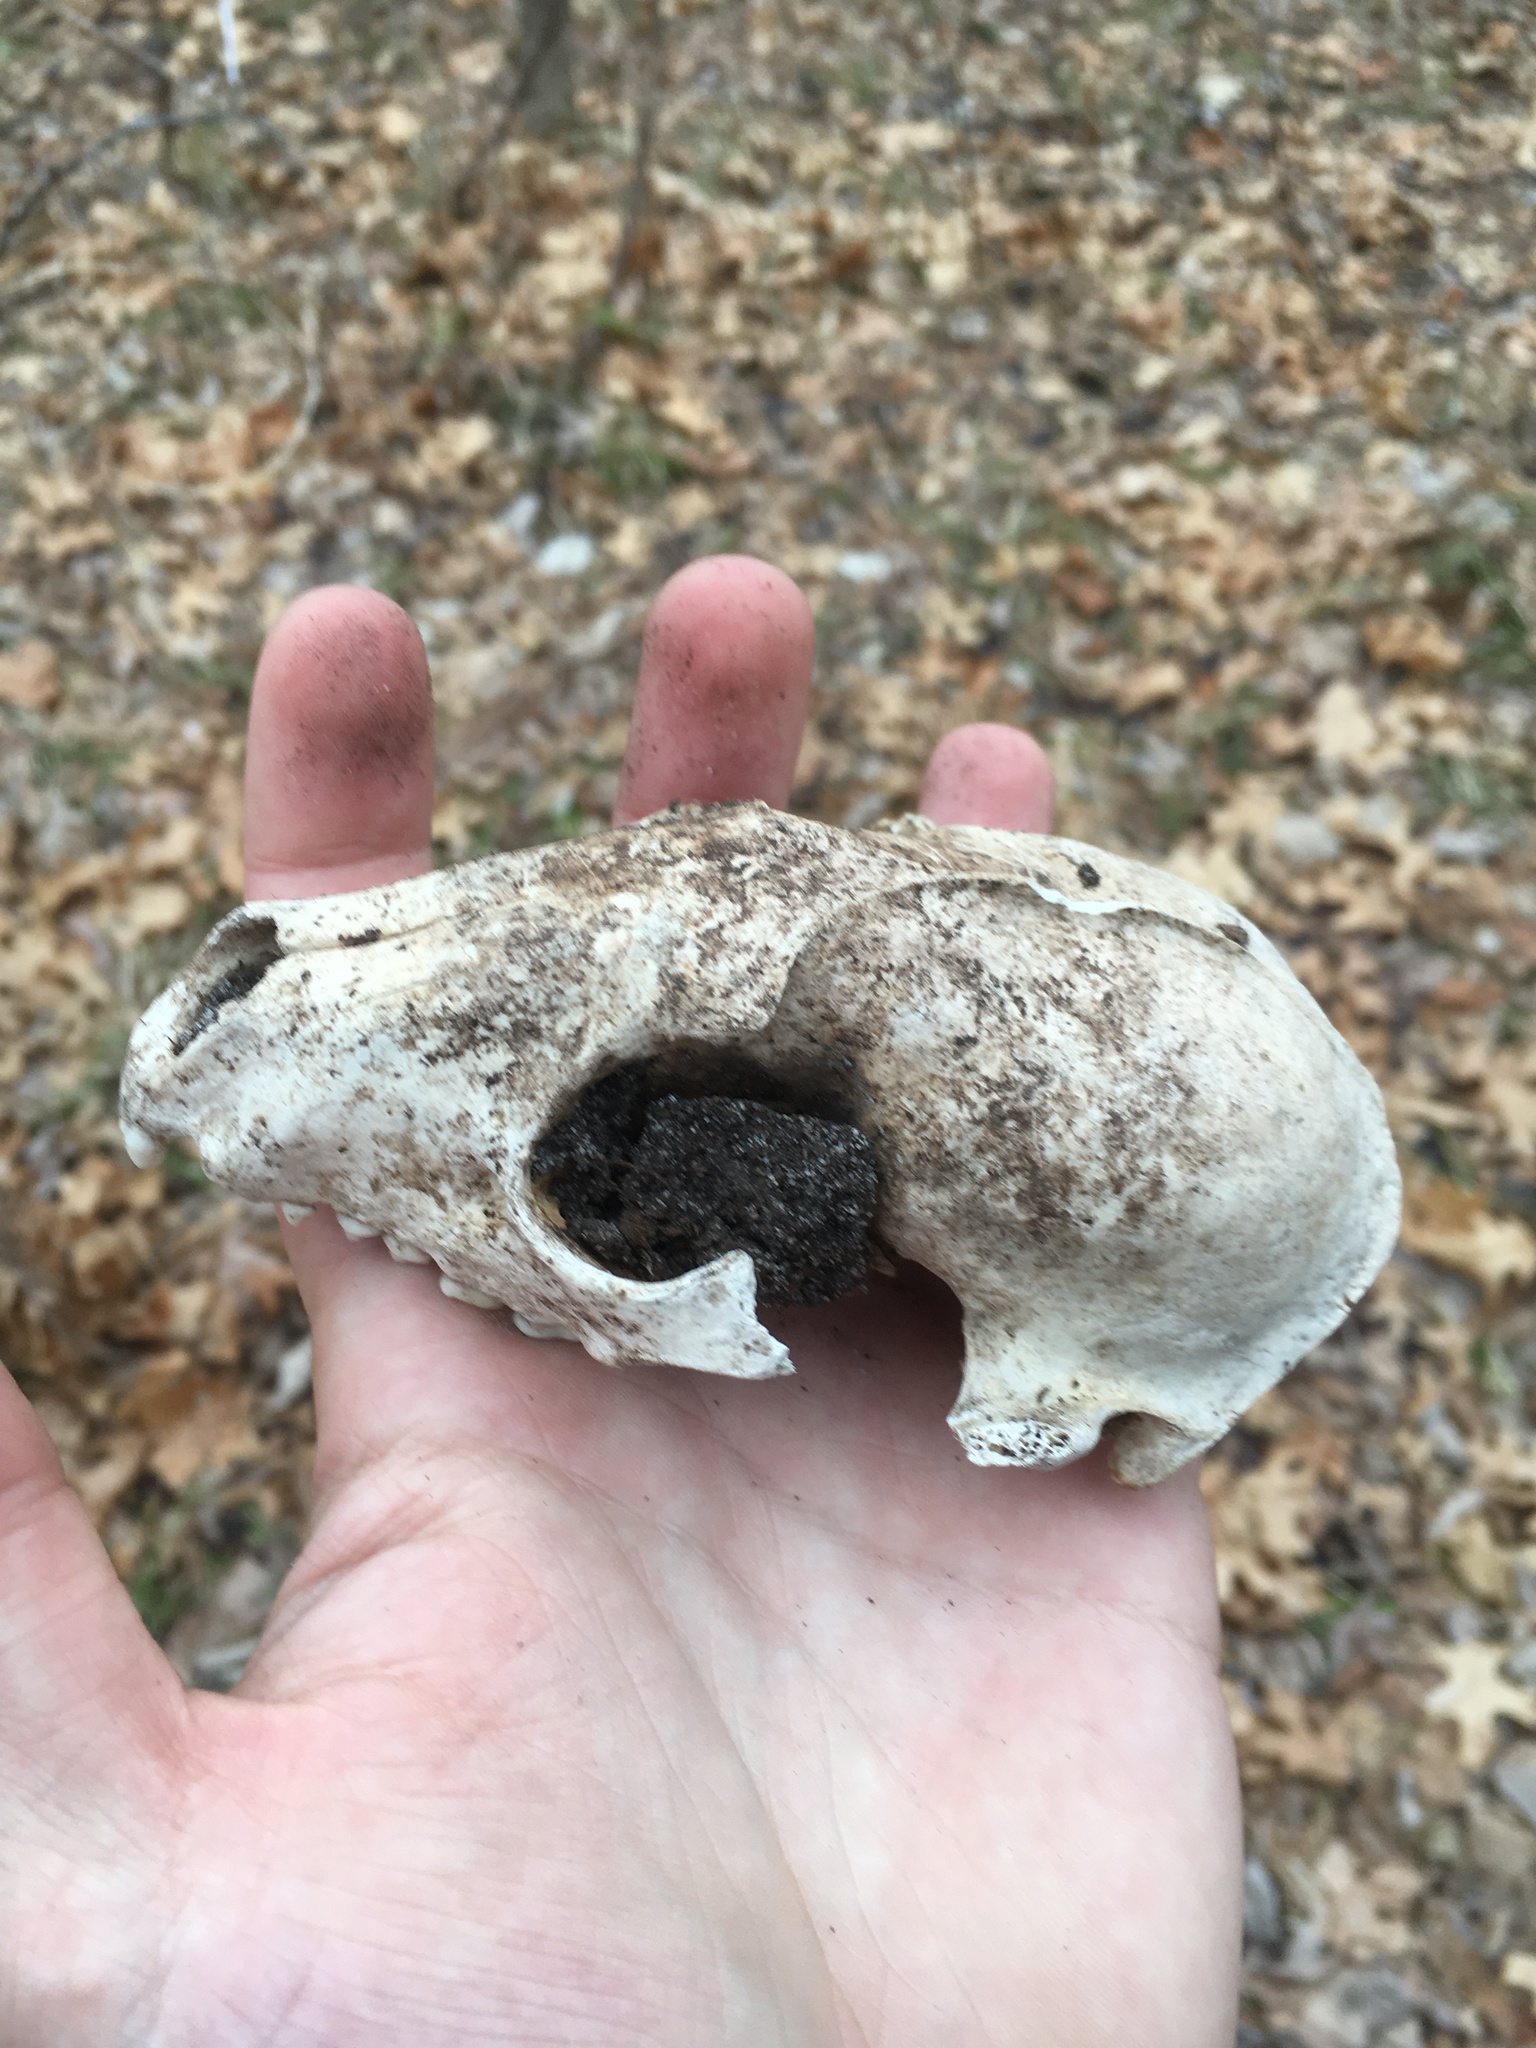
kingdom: Animalia
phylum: Chordata
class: Mammalia
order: Carnivora
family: Procyonidae
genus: Procyon
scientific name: Procyon lotor
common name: Raccoon
